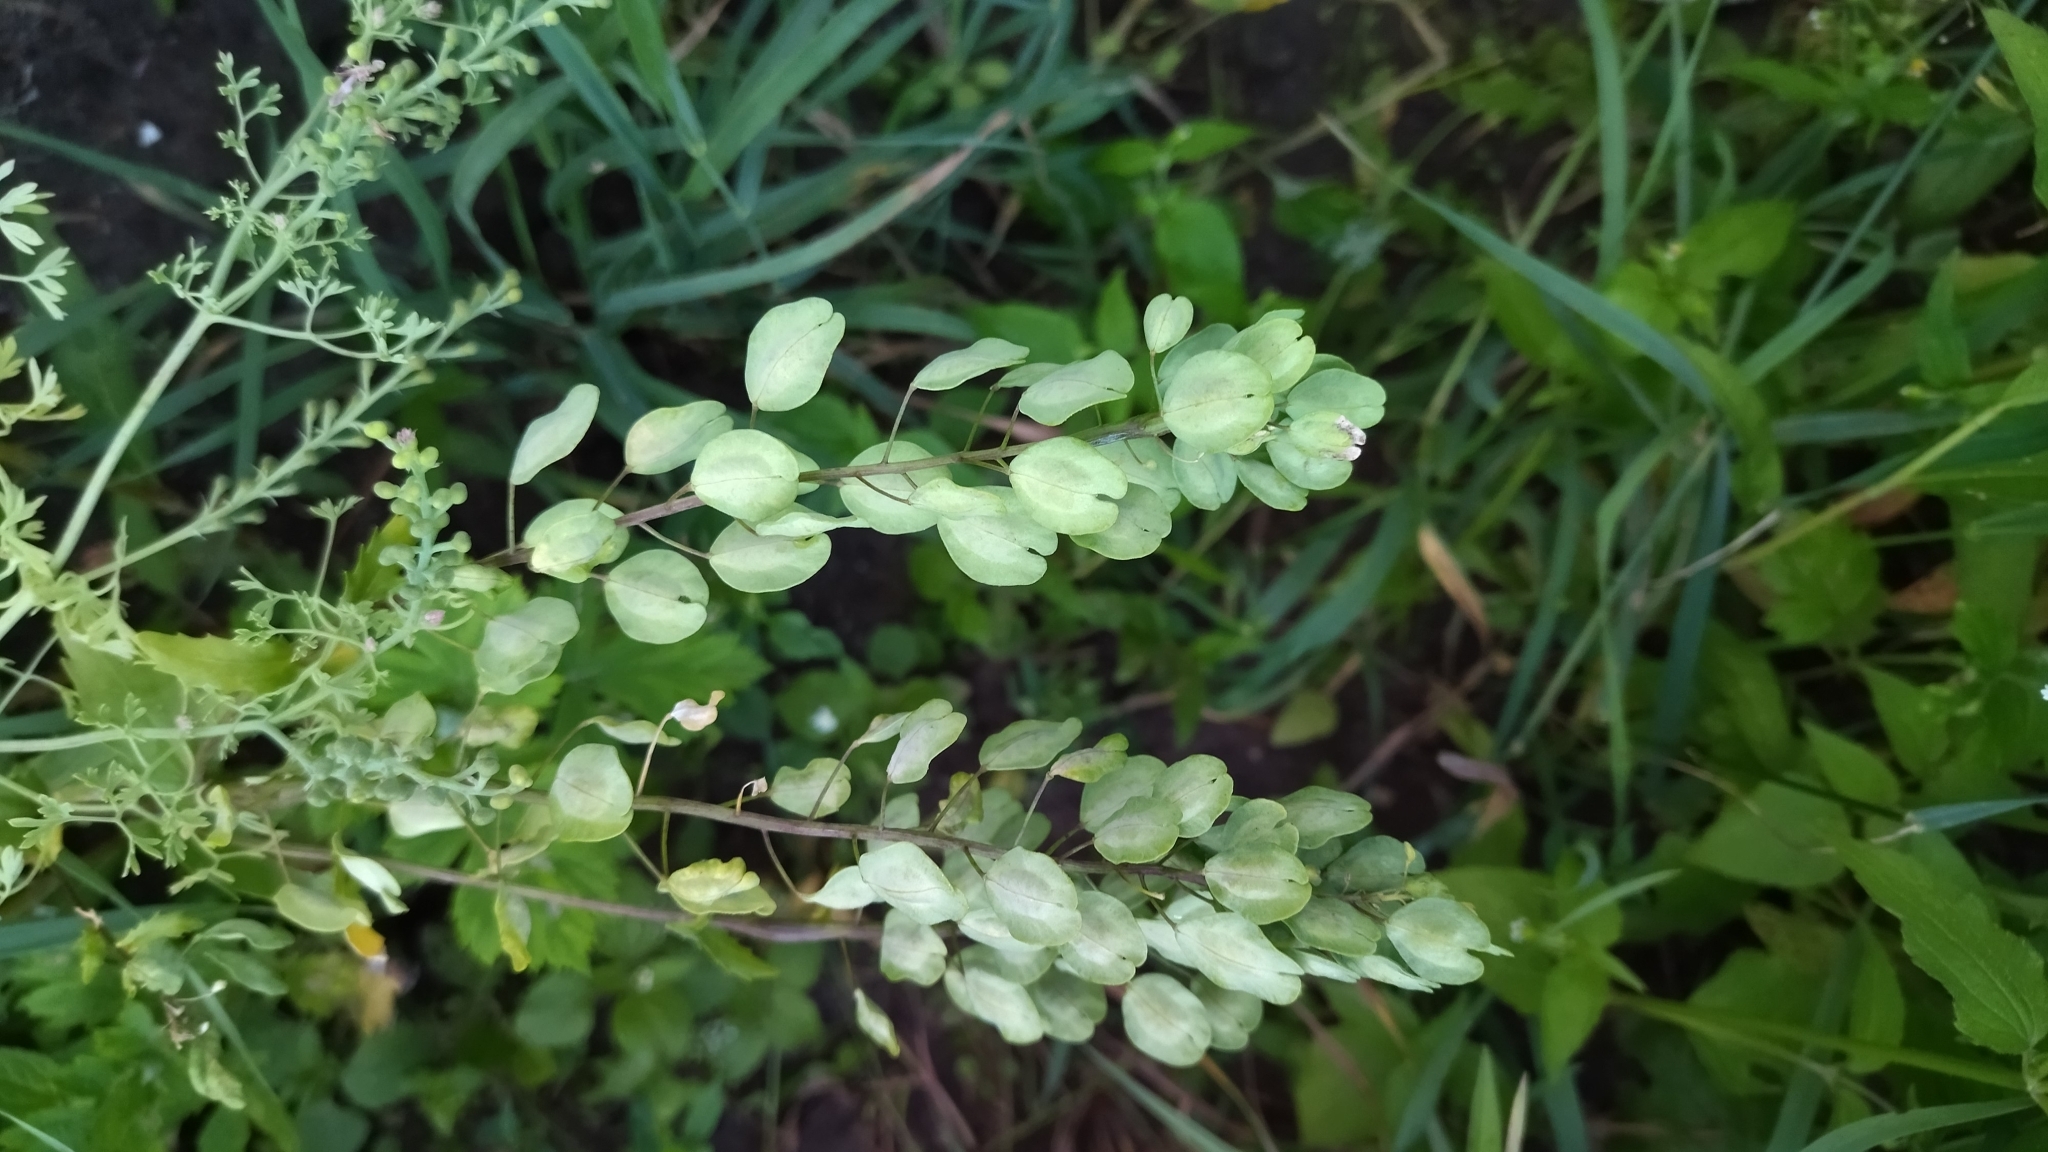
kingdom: Plantae
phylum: Tracheophyta
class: Magnoliopsida
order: Brassicales
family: Brassicaceae
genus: Thlaspi
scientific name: Thlaspi arvense
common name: Field pennycress
